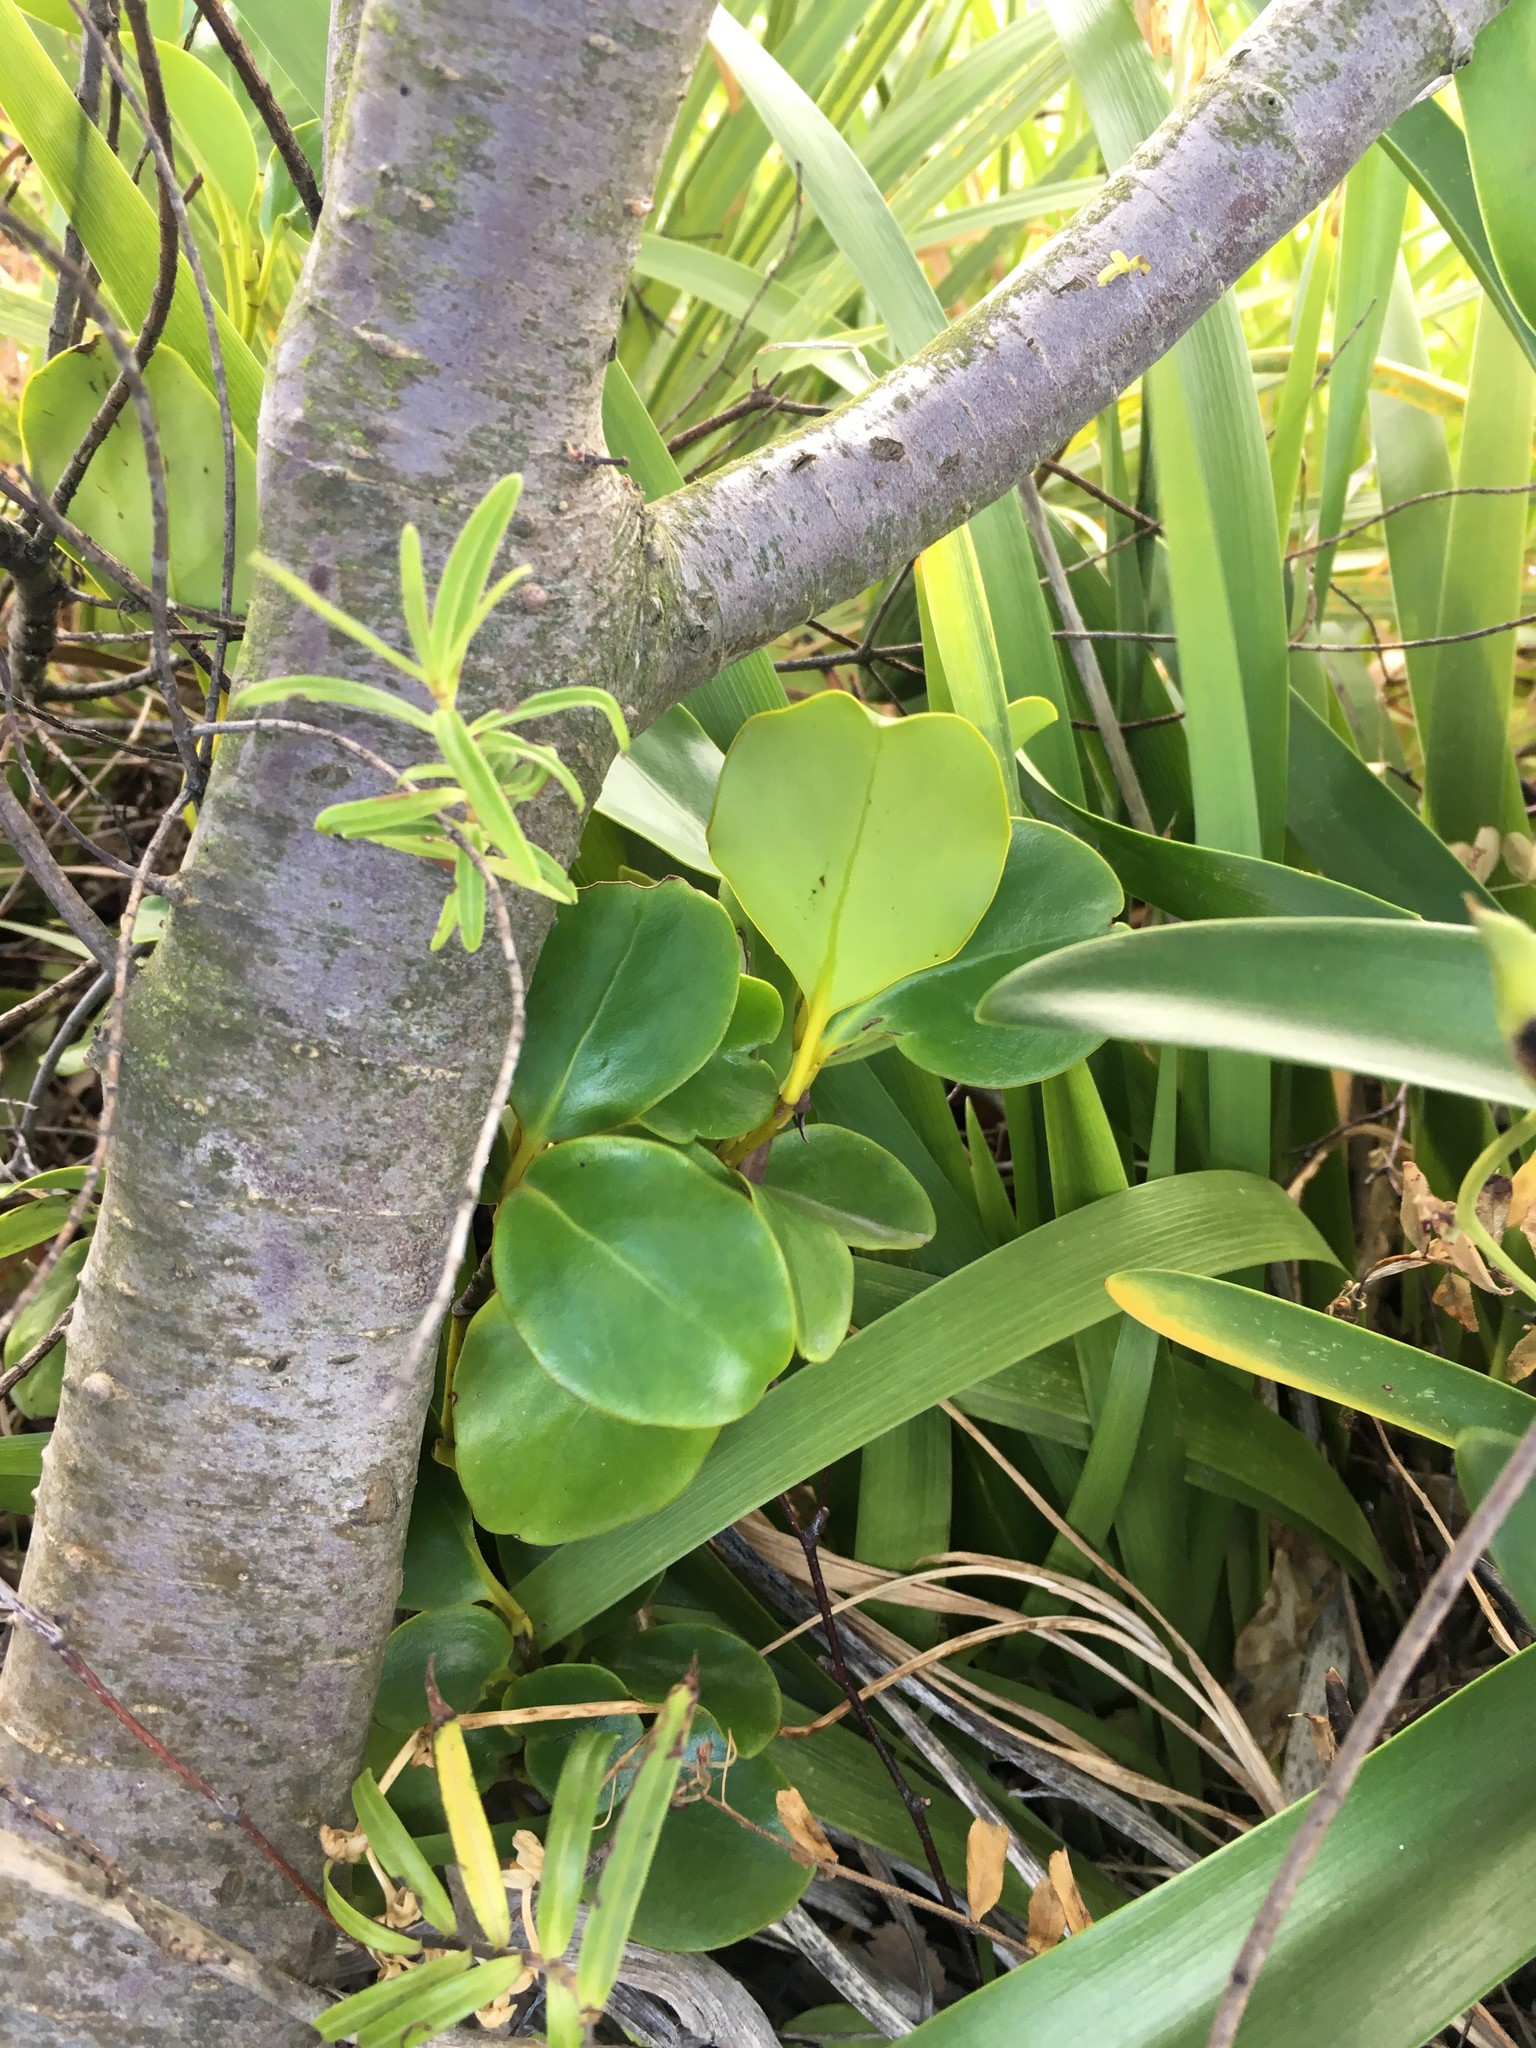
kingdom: Plantae
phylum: Tracheophyta
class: Magnoliopsida
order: Apiales
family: Griseliniaceae
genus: Griselinia
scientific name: Griselinia littoralis
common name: New zealand broadleaf
